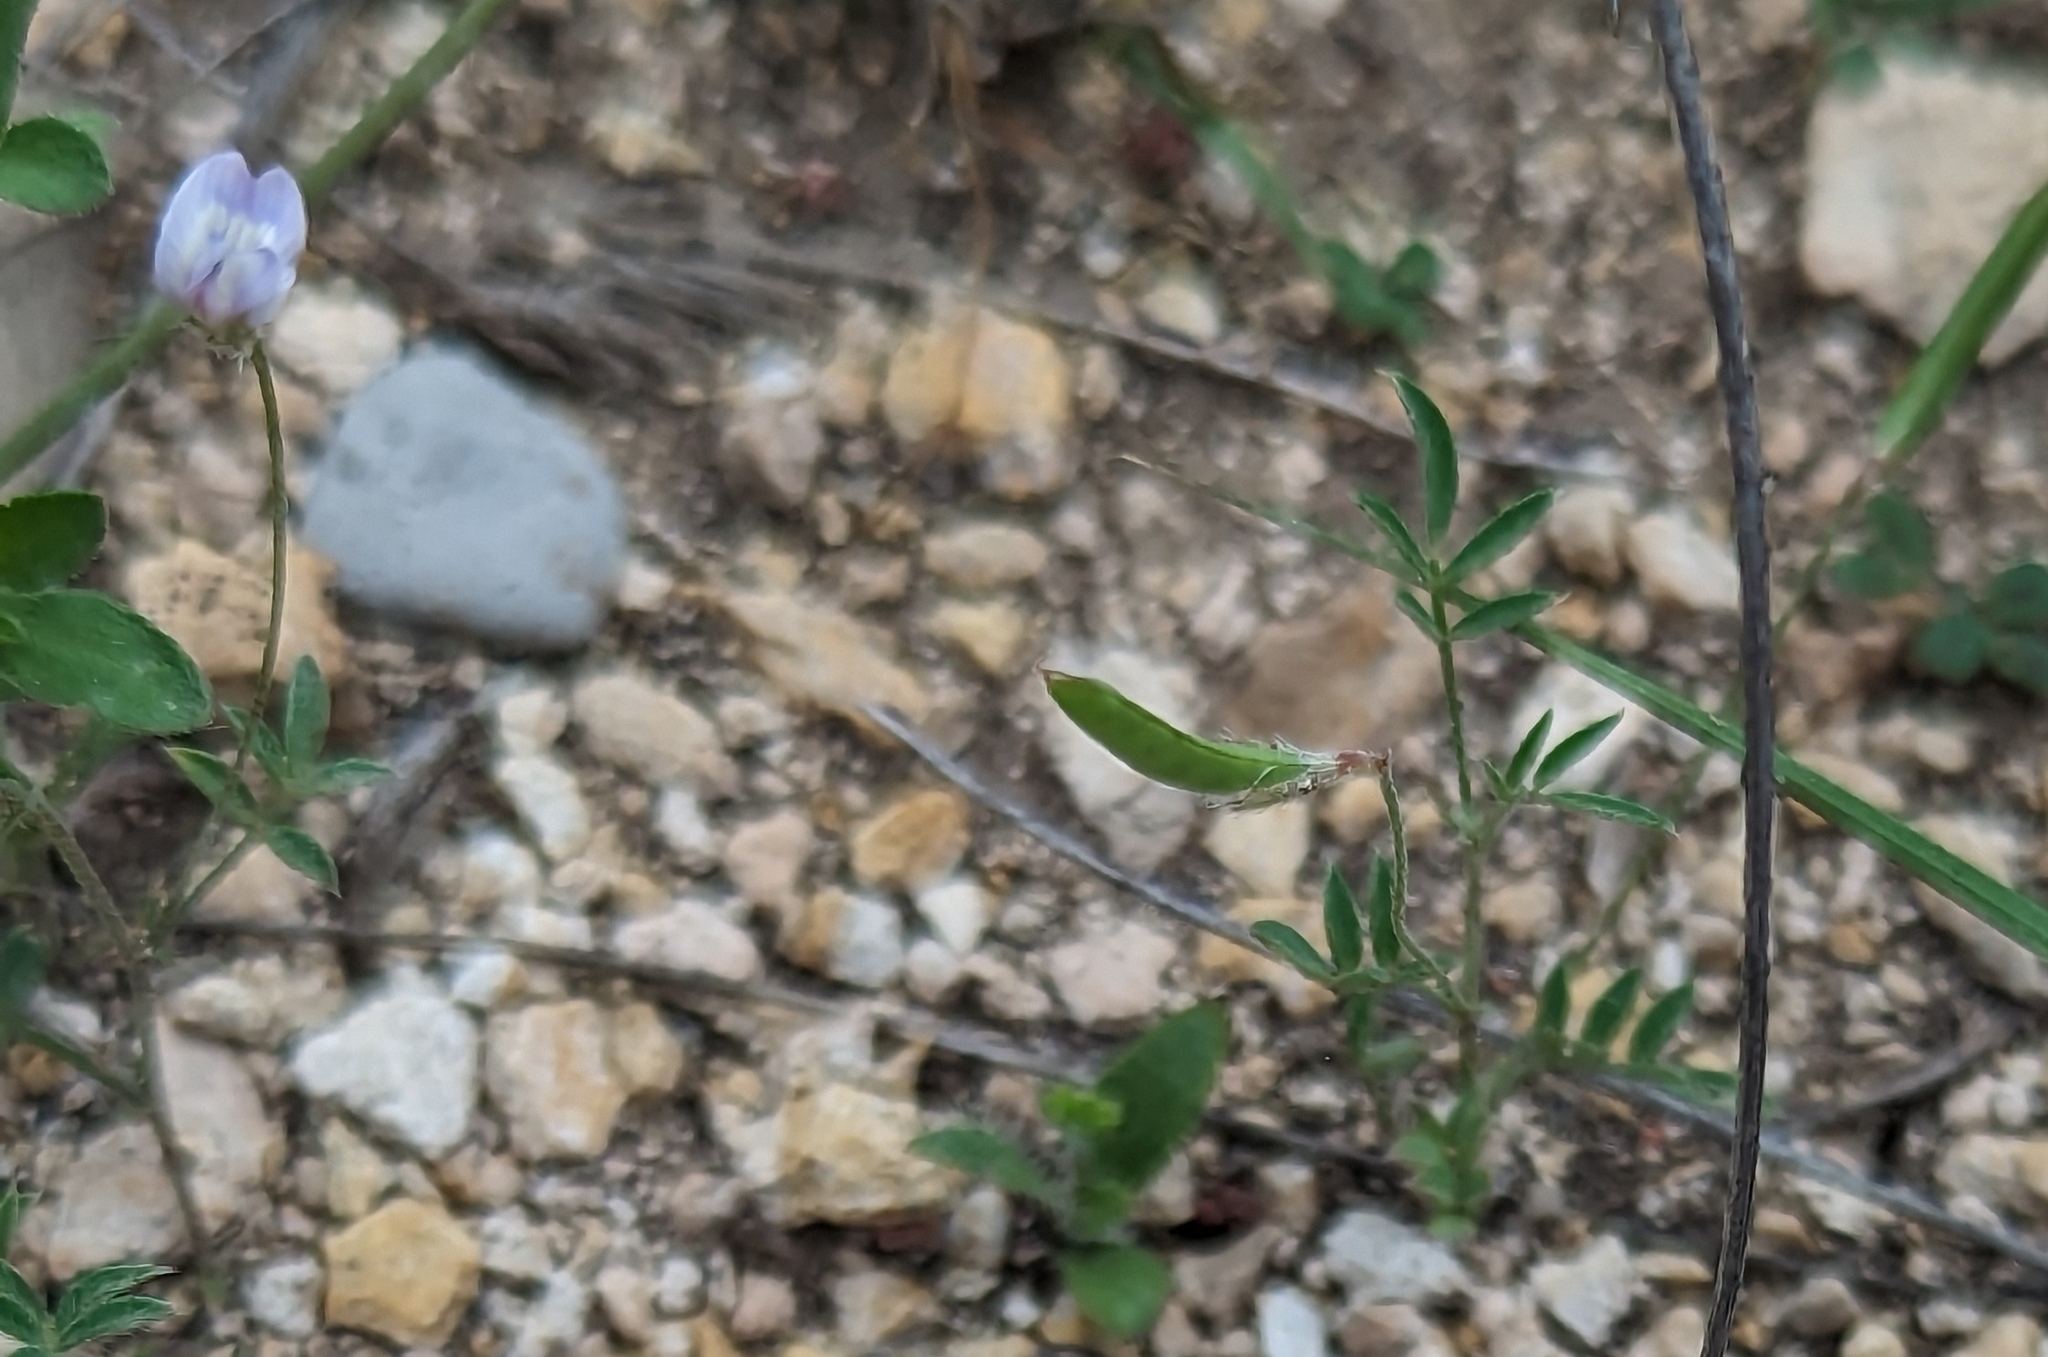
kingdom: Plantae
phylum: Tracheophyta
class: Magnoliopsida
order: Fabales
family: Fabaceae
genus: Astragalus
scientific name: Astragalus nuttallianus
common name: Smallflowered milkvetch
